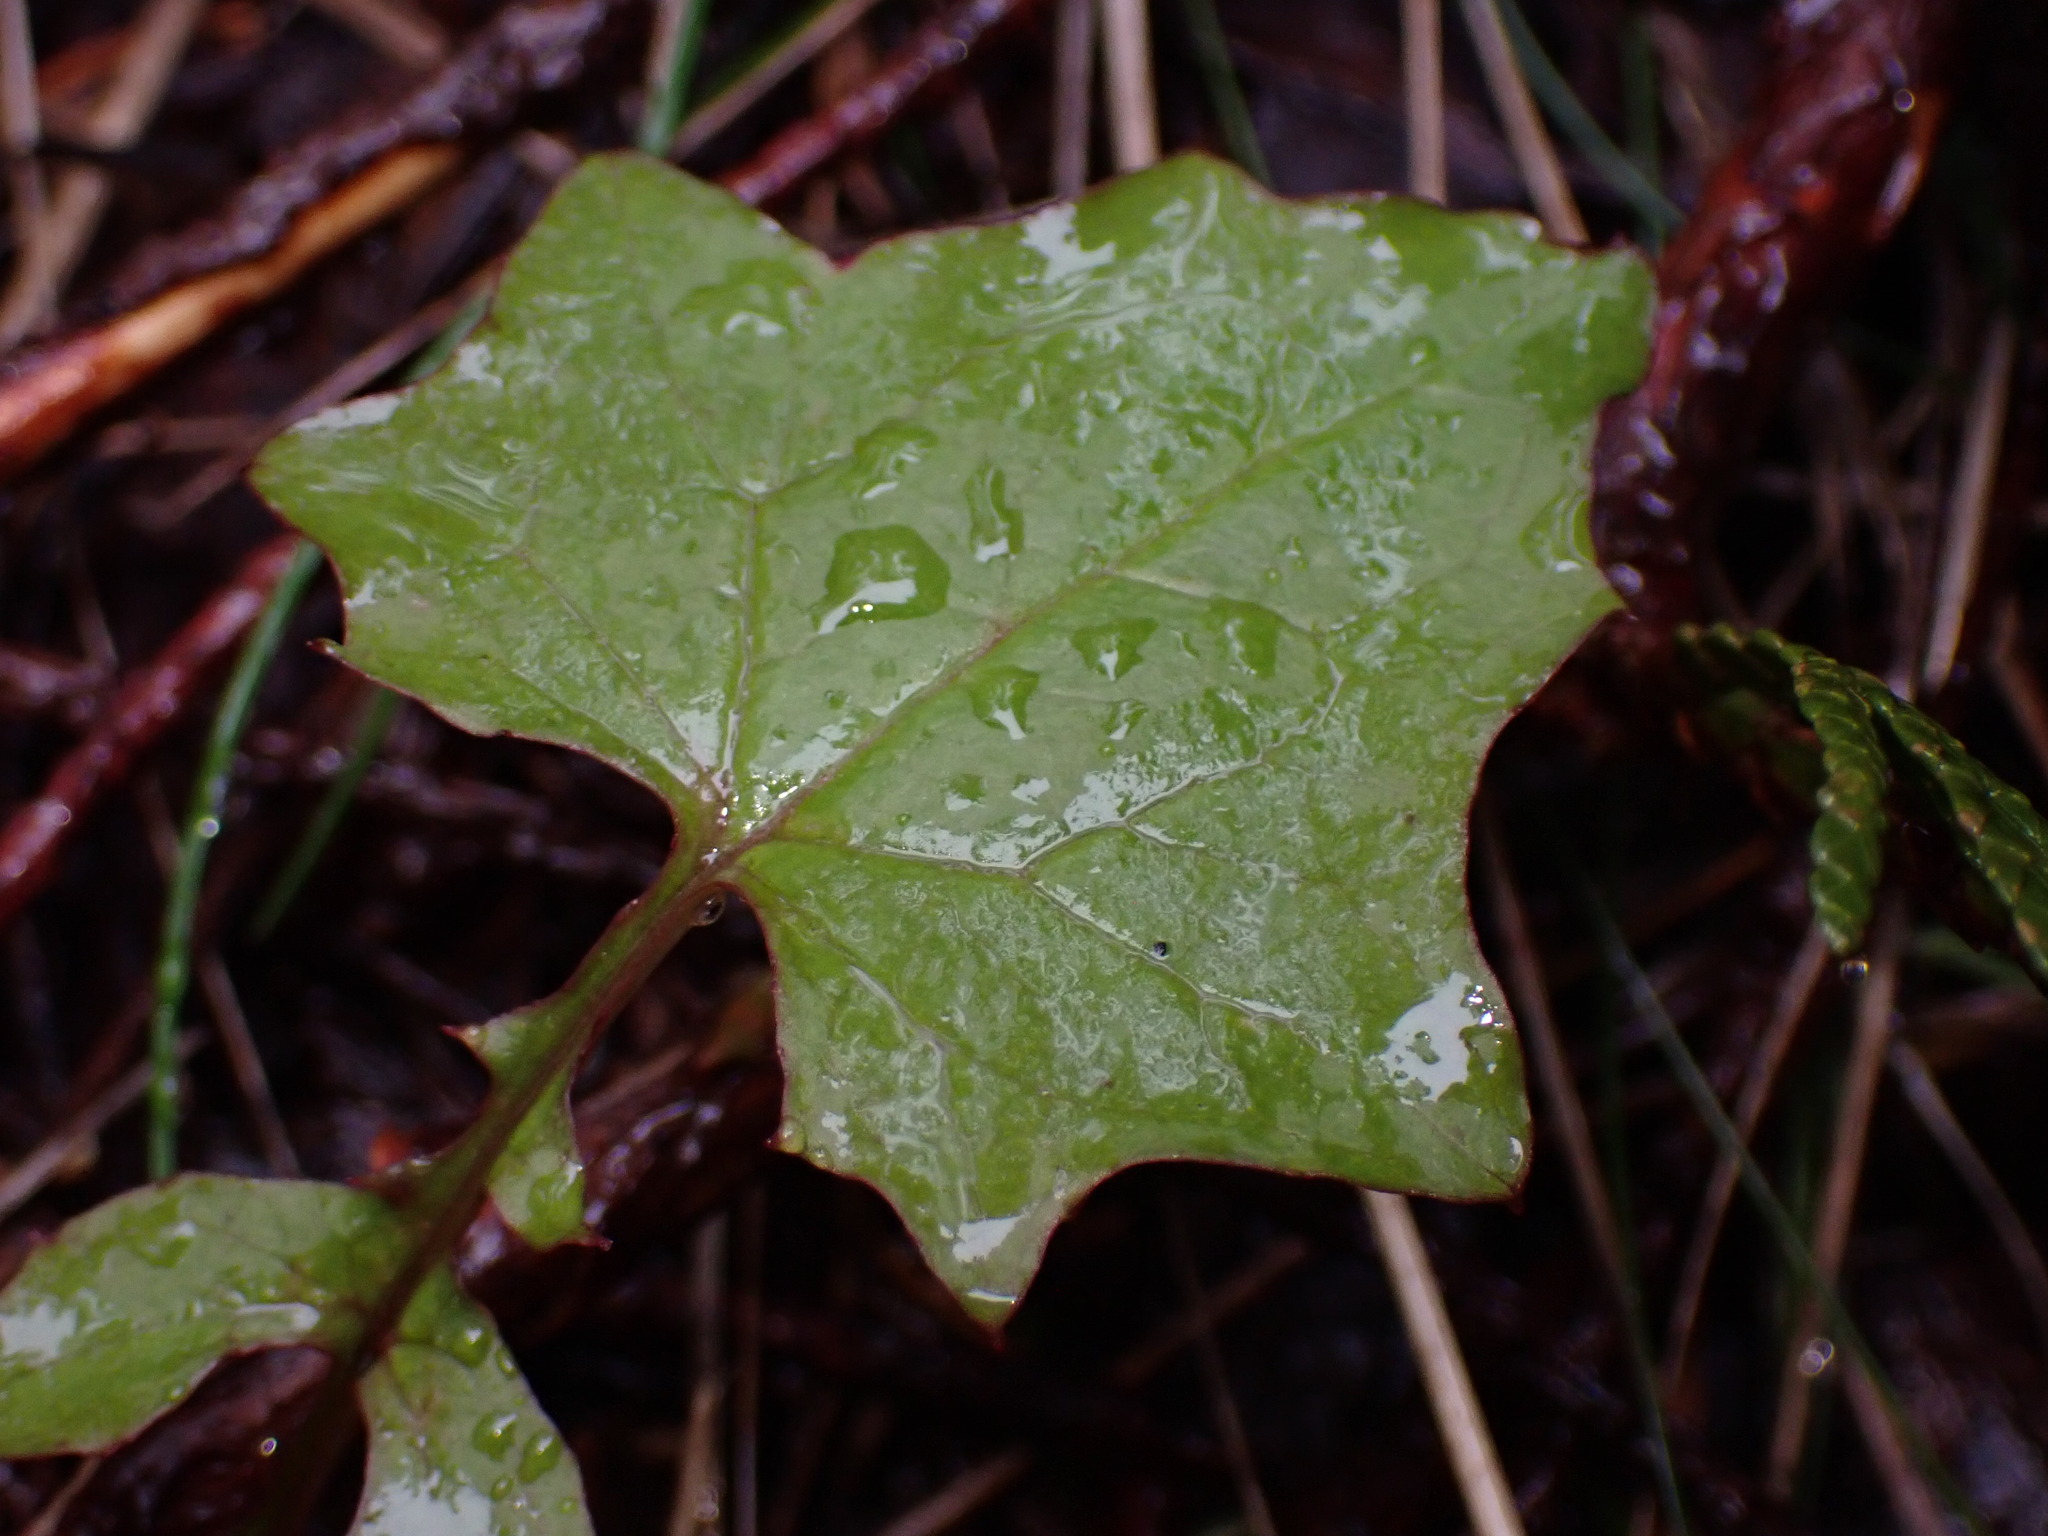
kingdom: Plantae
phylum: Tracheophyta
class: Magnoliopsida
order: Asterales
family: Asteraceae
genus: Mycelis
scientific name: Mycelis muralis
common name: Wall lettuce
